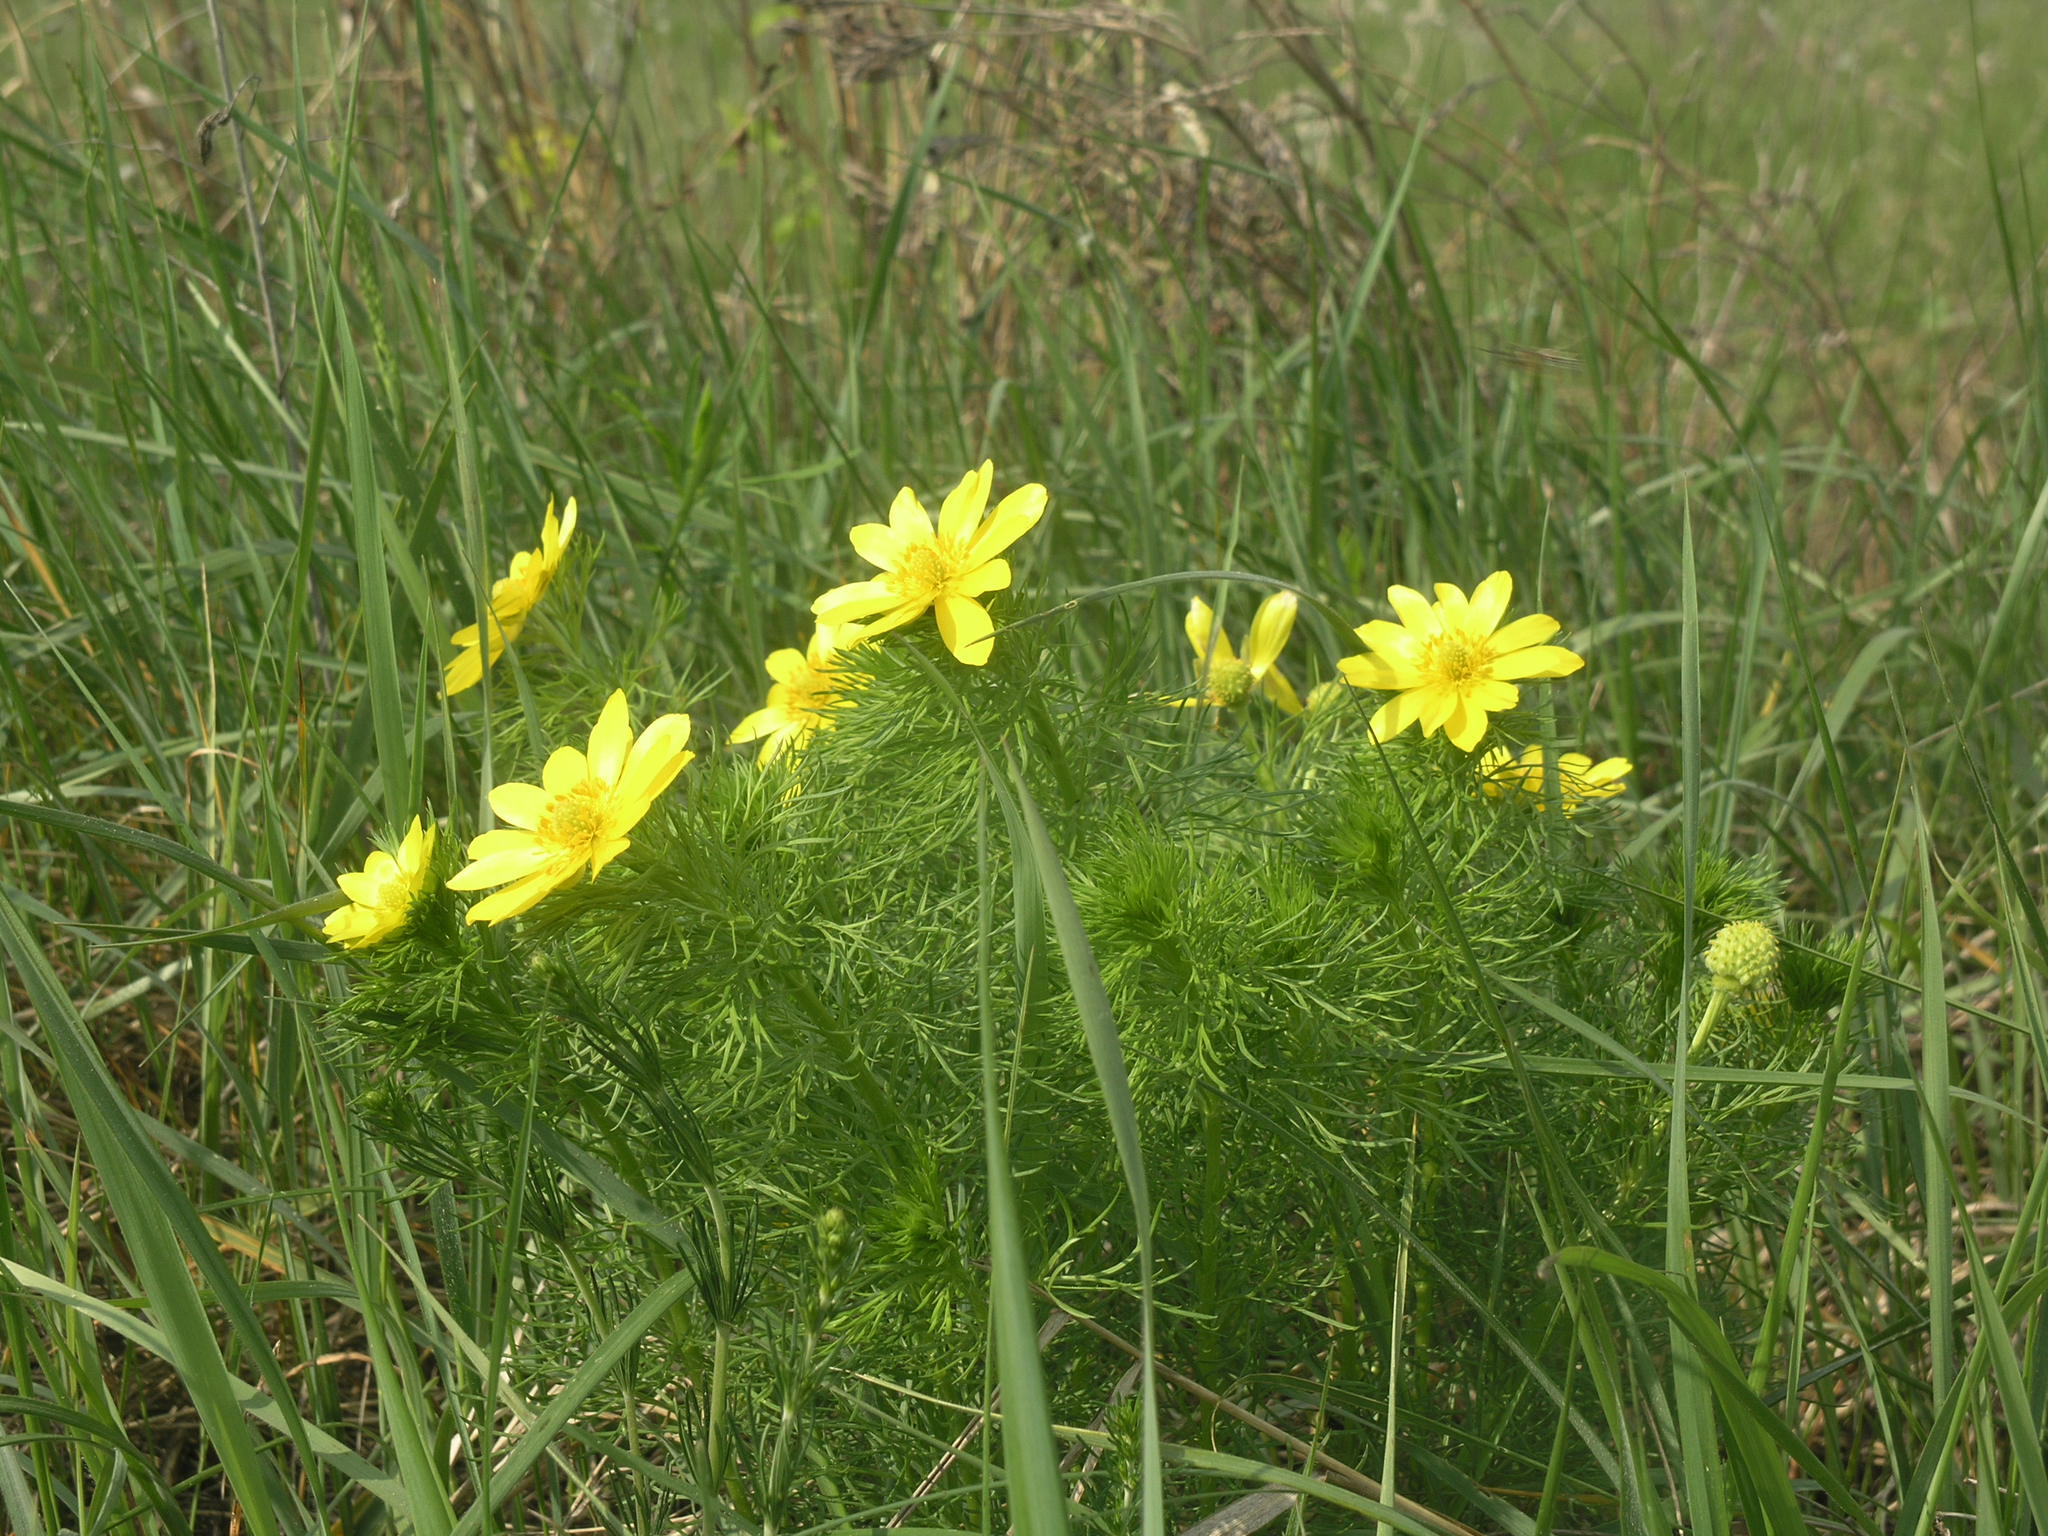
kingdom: Plantae
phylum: Tracheophyta
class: Magnoliopsida
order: Ranunculales
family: Ranunculaceae
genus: Adonis
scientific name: Adonis vernalis
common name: Yellow pheasants-eye
